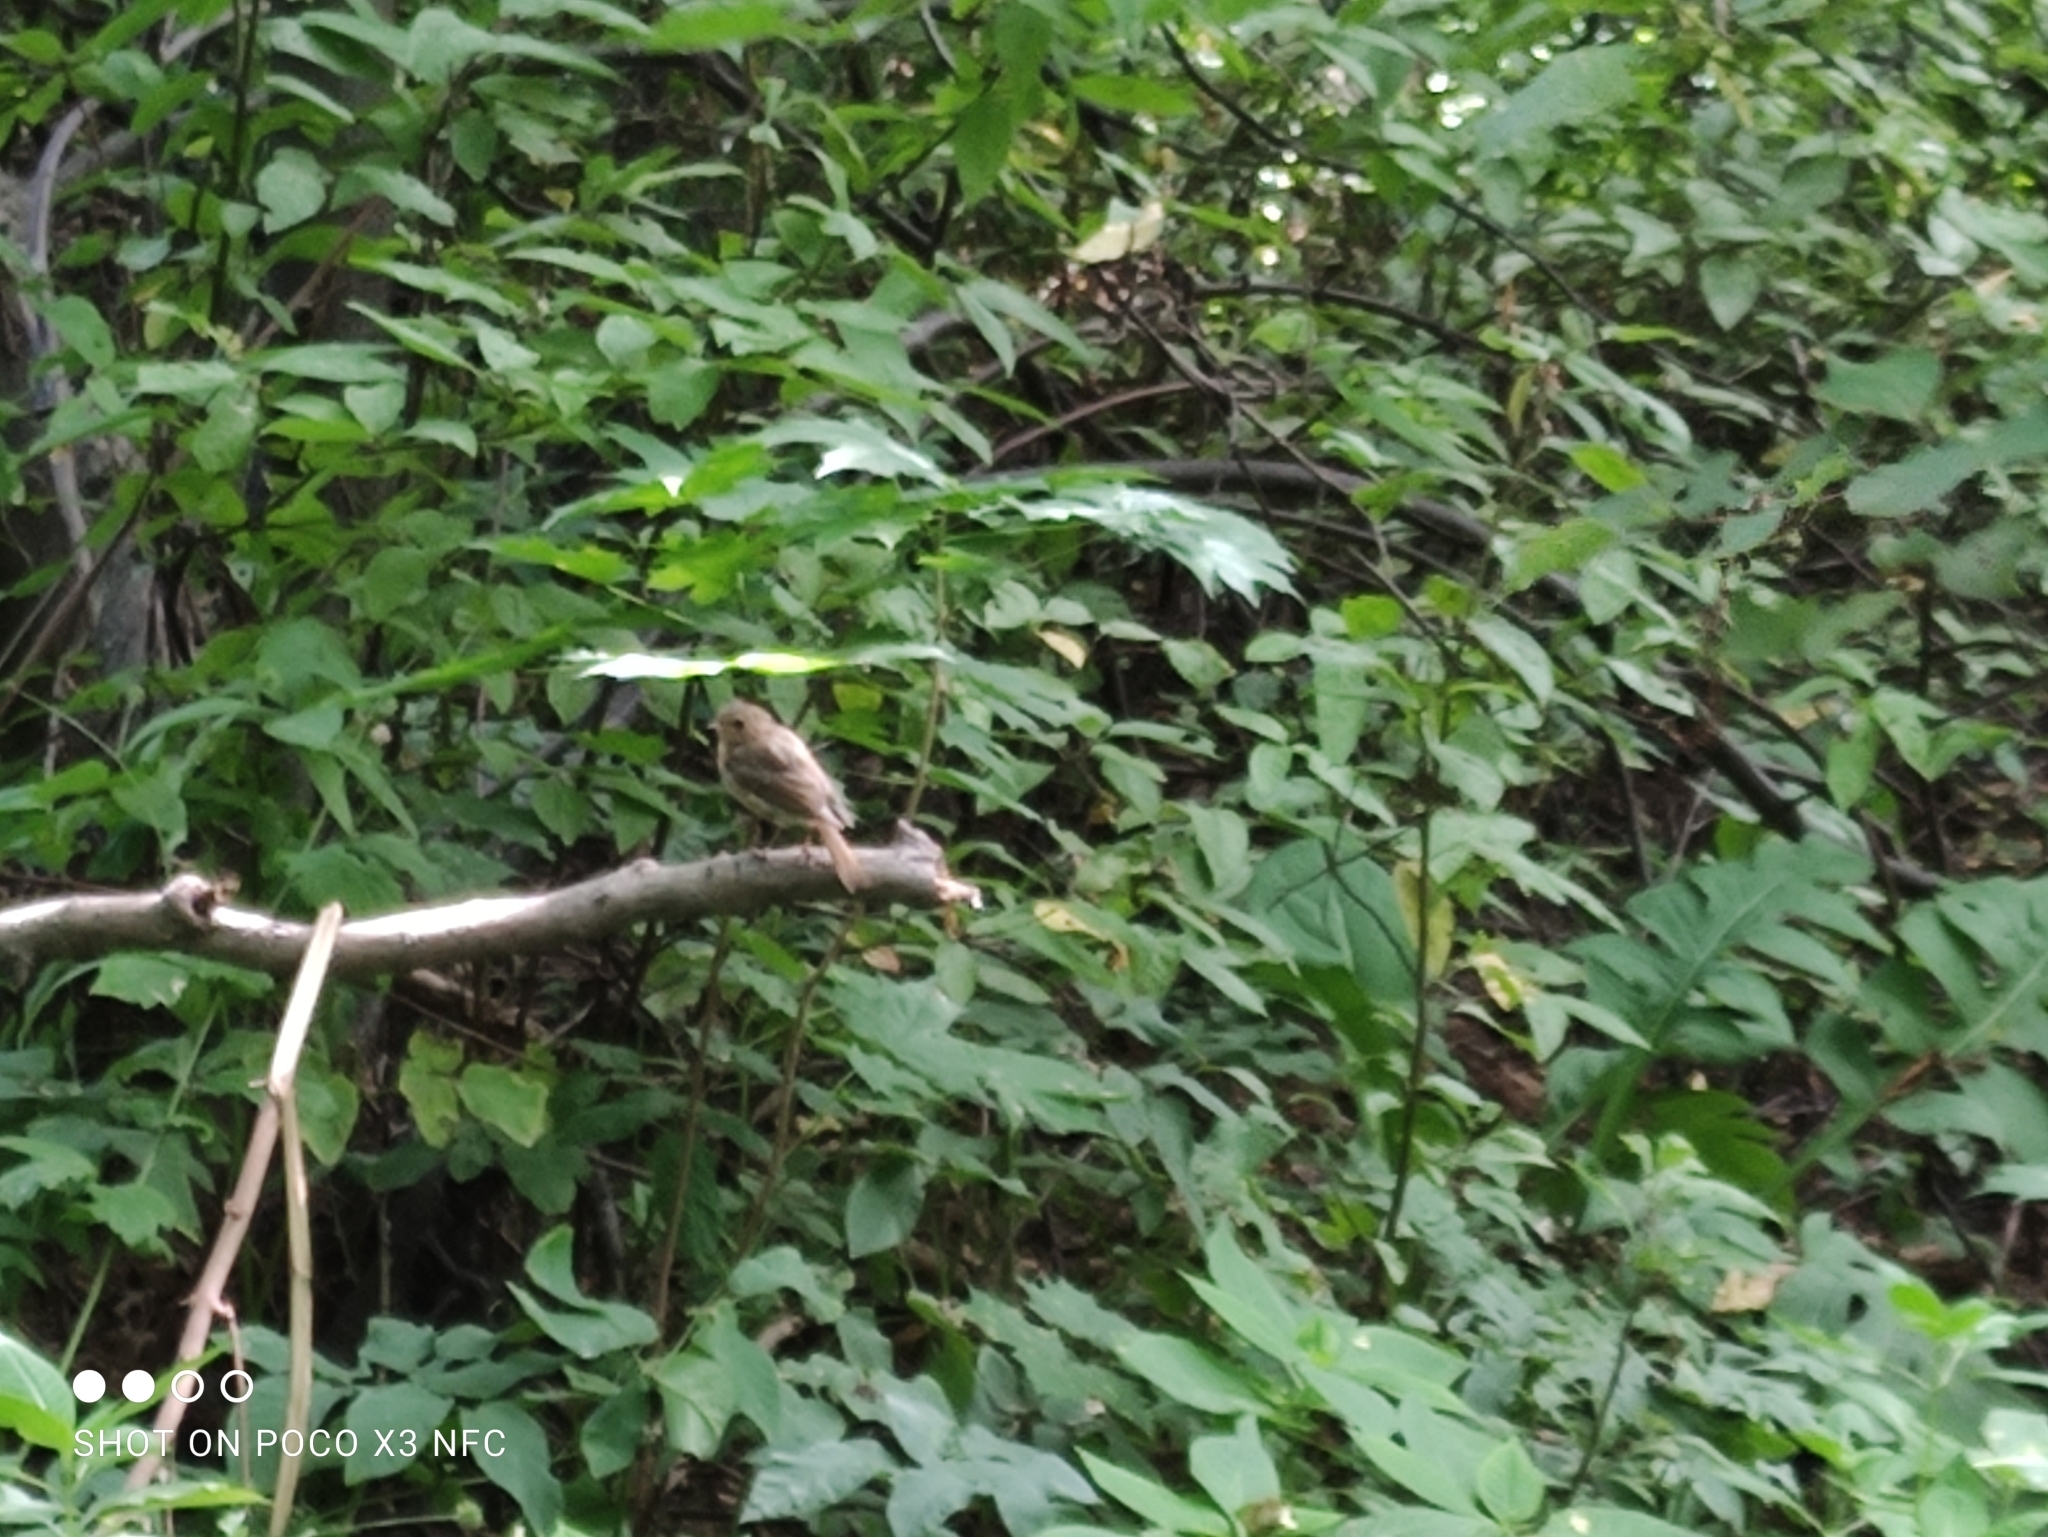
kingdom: Animalia
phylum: Chordata
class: Aves
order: Passeriformes
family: Muscicapidae
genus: Luscinia
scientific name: Luscinia luscinia
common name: Thrush nightingale
